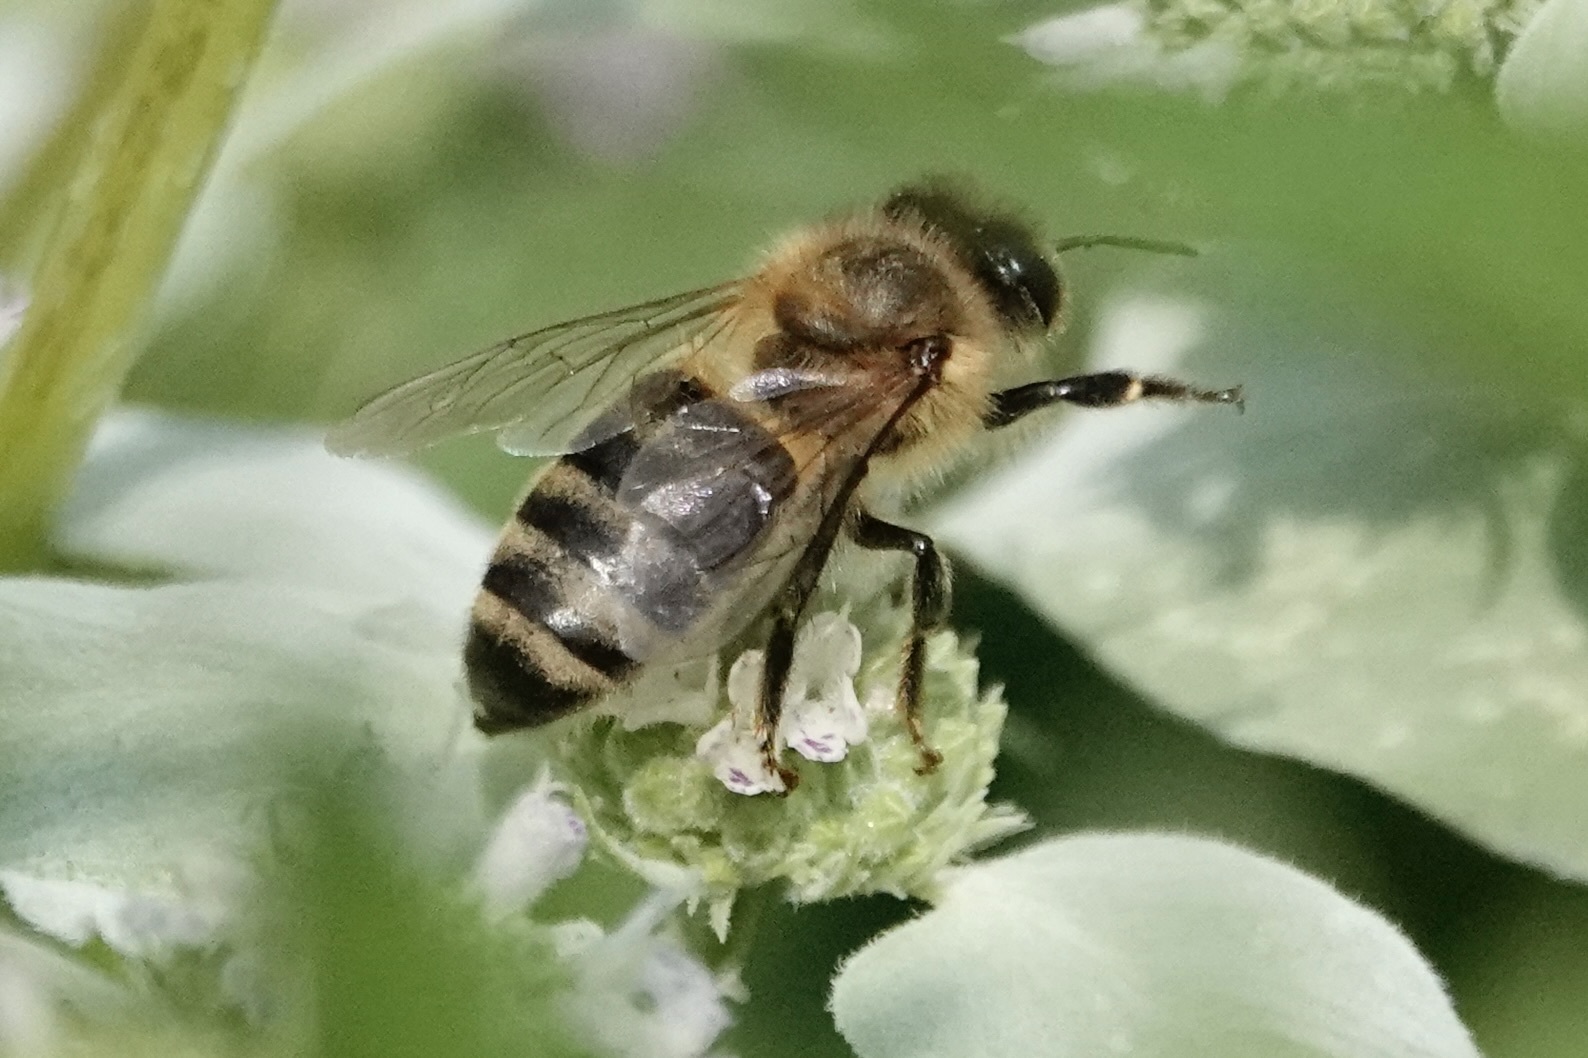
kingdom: Animalia
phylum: Arthropoda
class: Insecta
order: Hymenoptera
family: Apidae
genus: Apis
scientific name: Apis mellifera
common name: Honey bee
